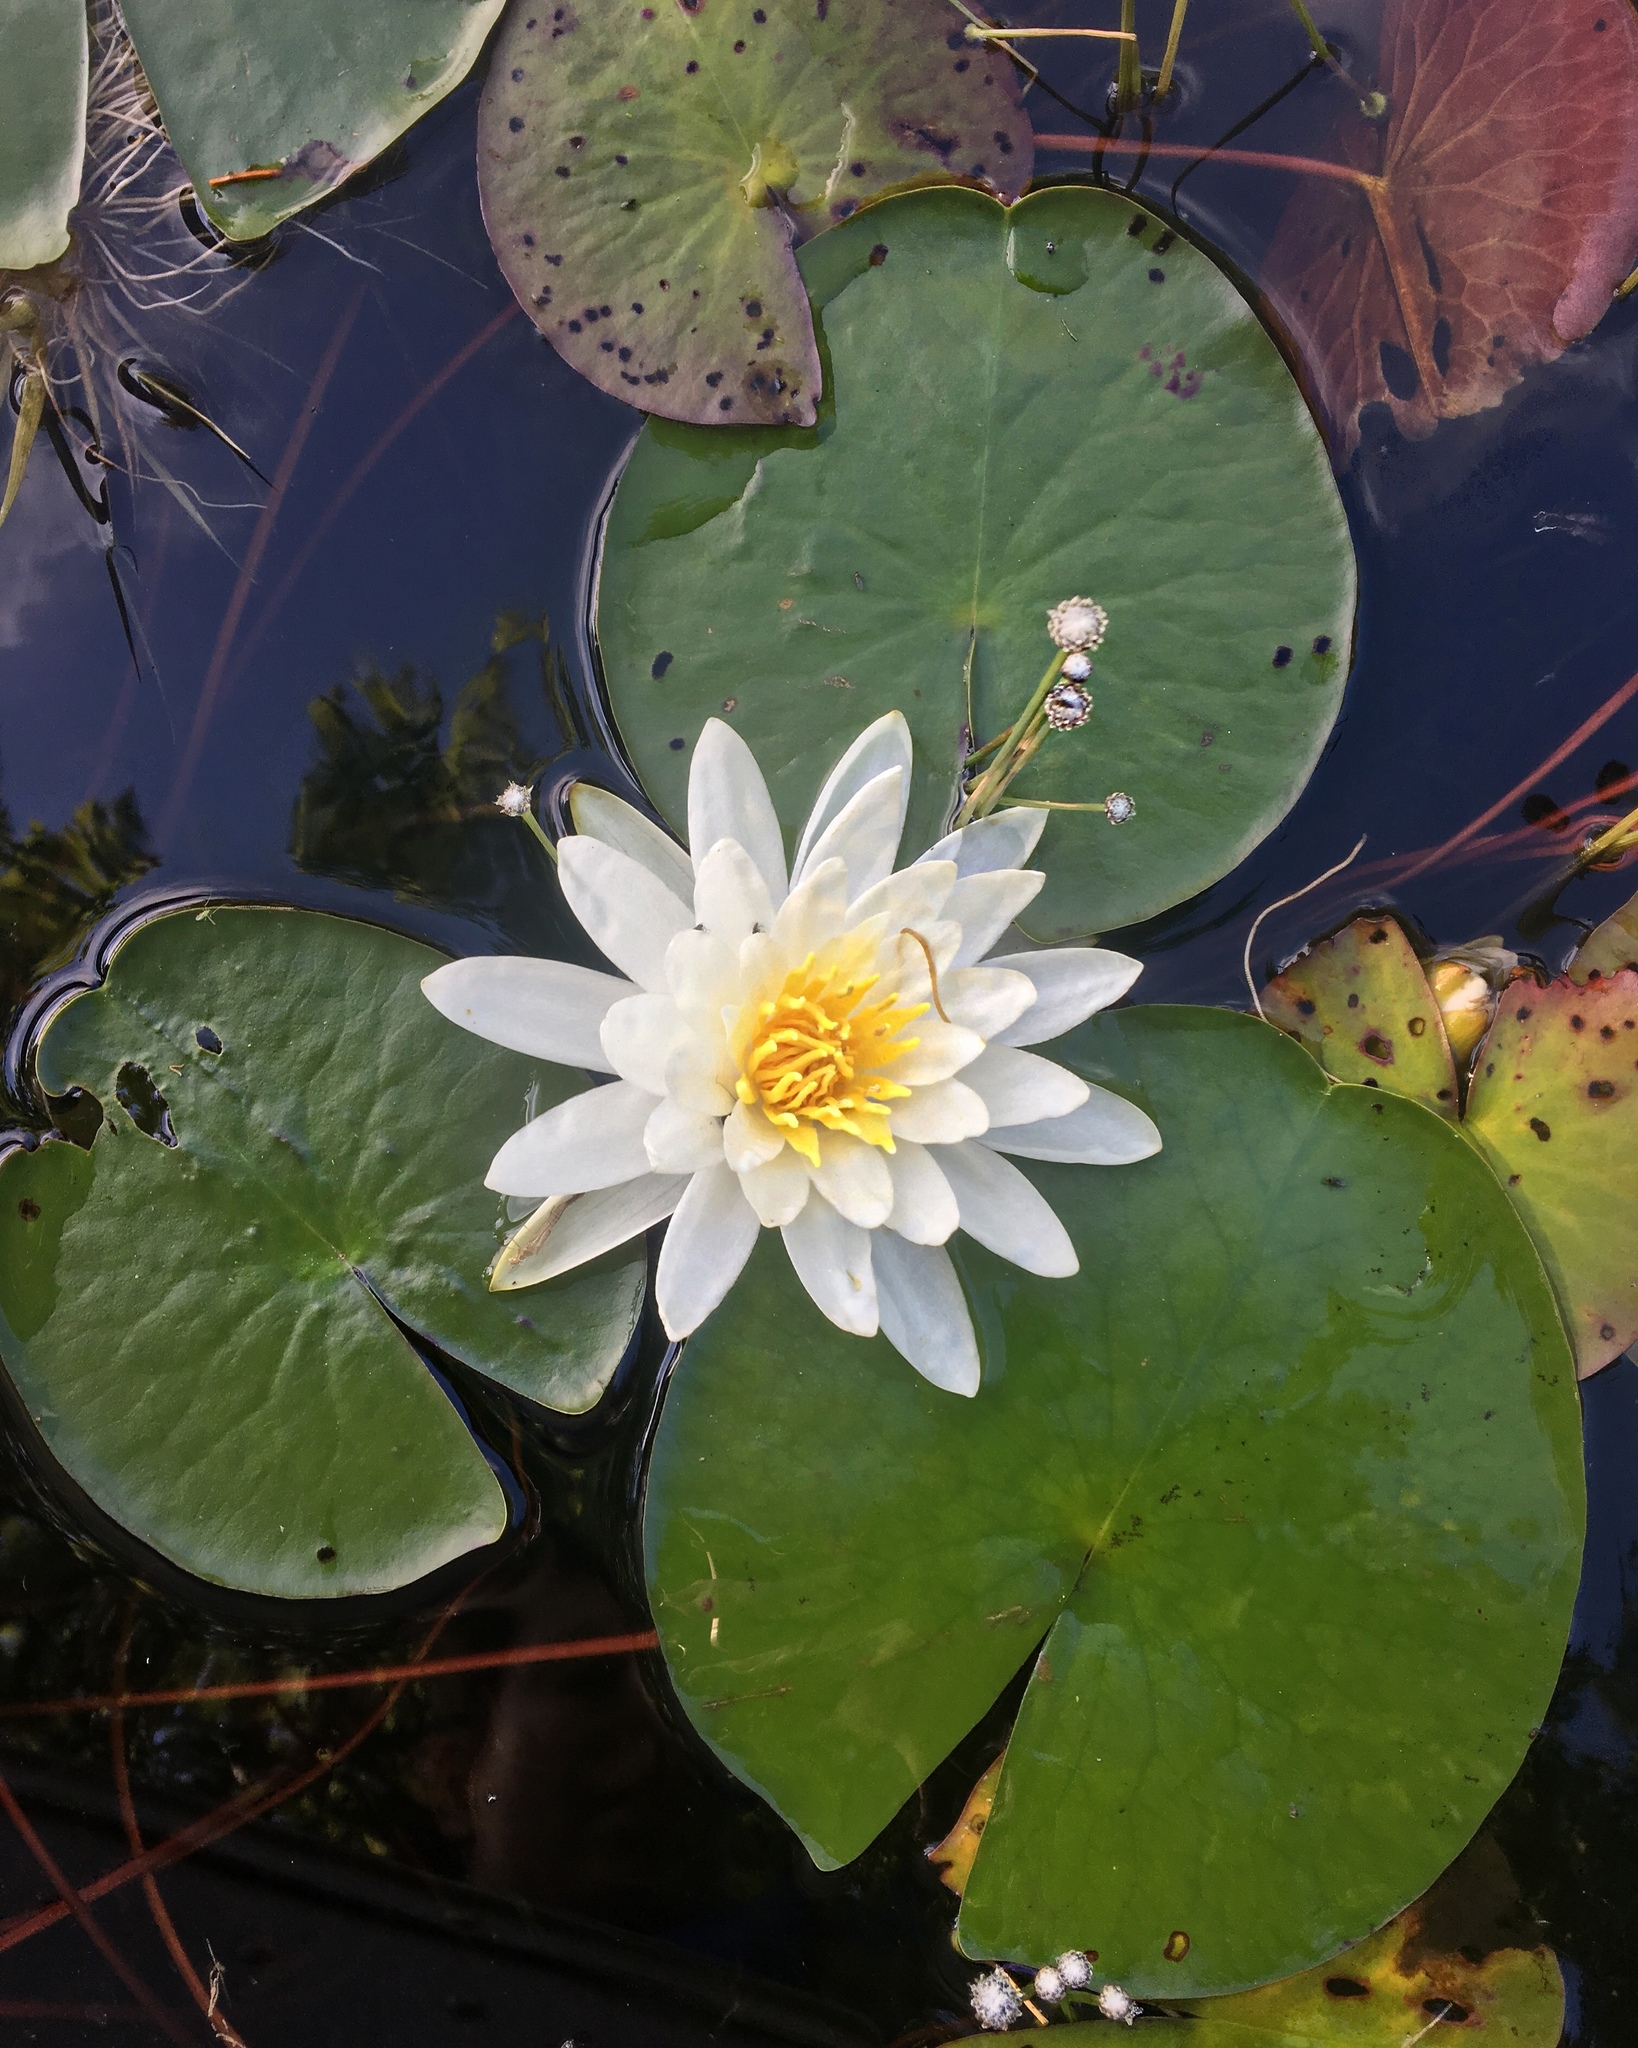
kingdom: Plantae
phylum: Tracheophyta
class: Magnoliopsida
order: Nymphaeales
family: Nymphaeaceae
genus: Nymphaea
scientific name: Nymphaea odorata
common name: Fragrant water-lily
